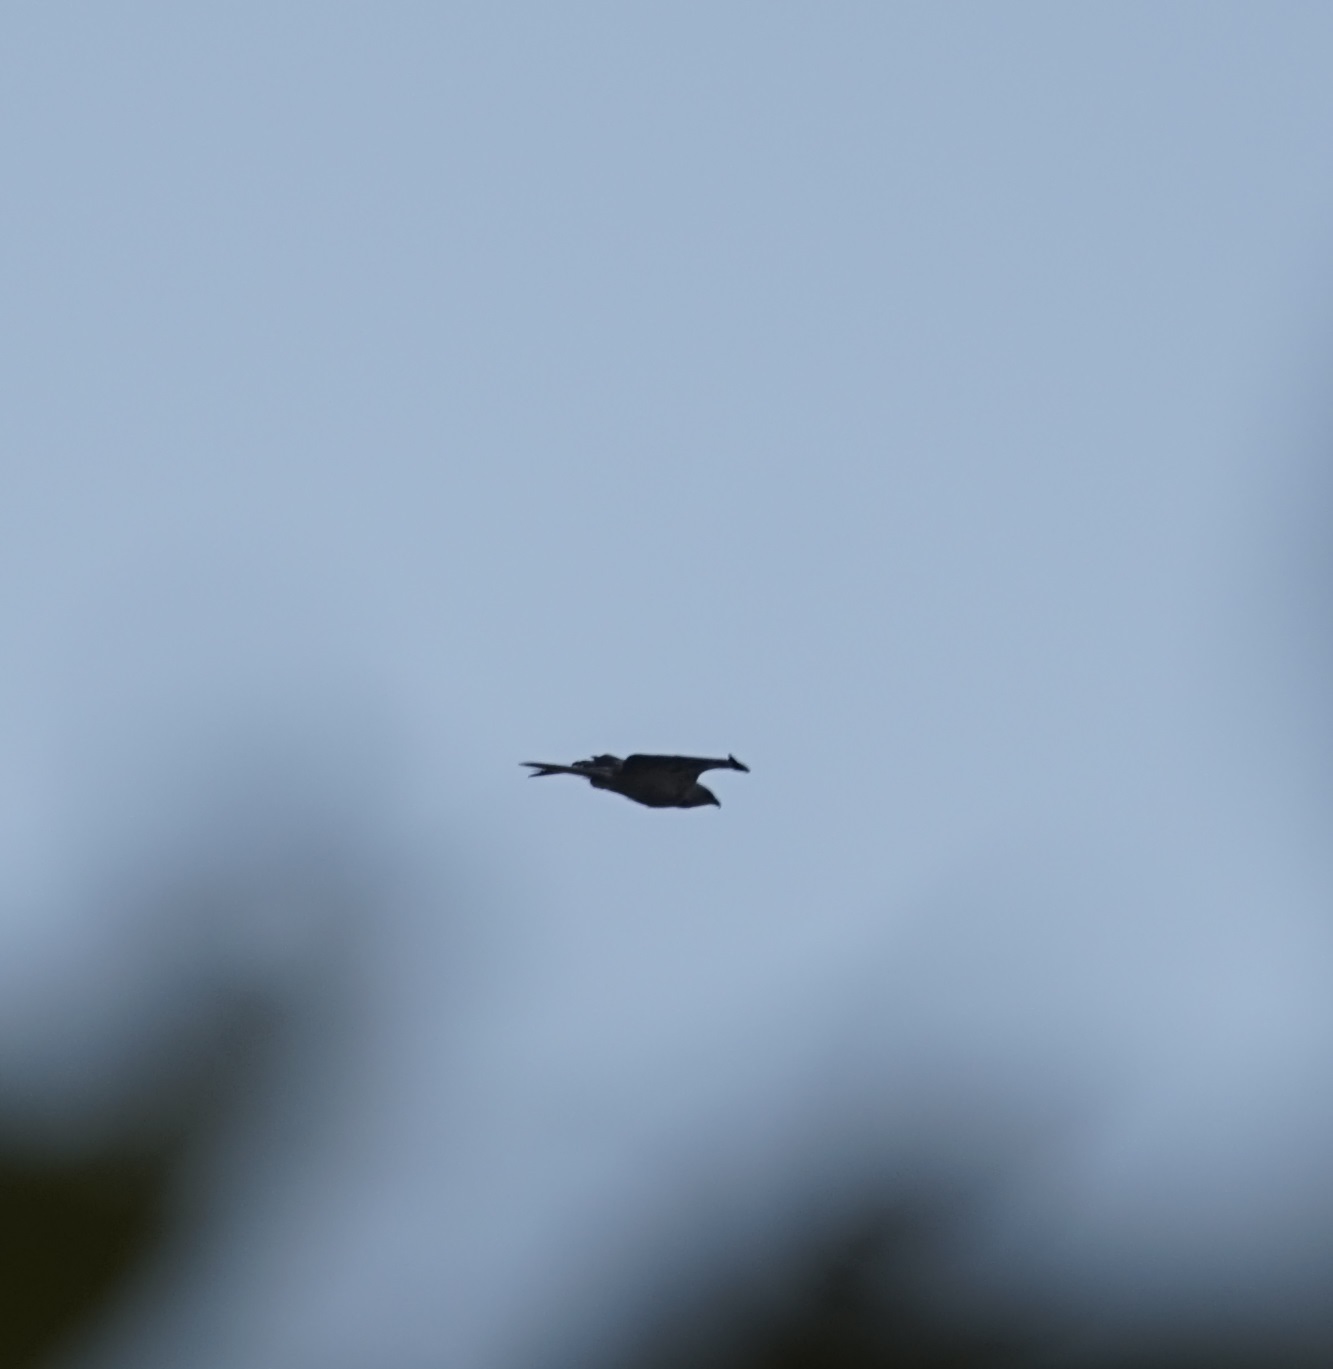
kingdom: Animalia
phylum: Chordata
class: Aves
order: Accipitriformes
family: Accipitridae
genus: Milvus
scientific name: Milvus migrans
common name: Black kite
